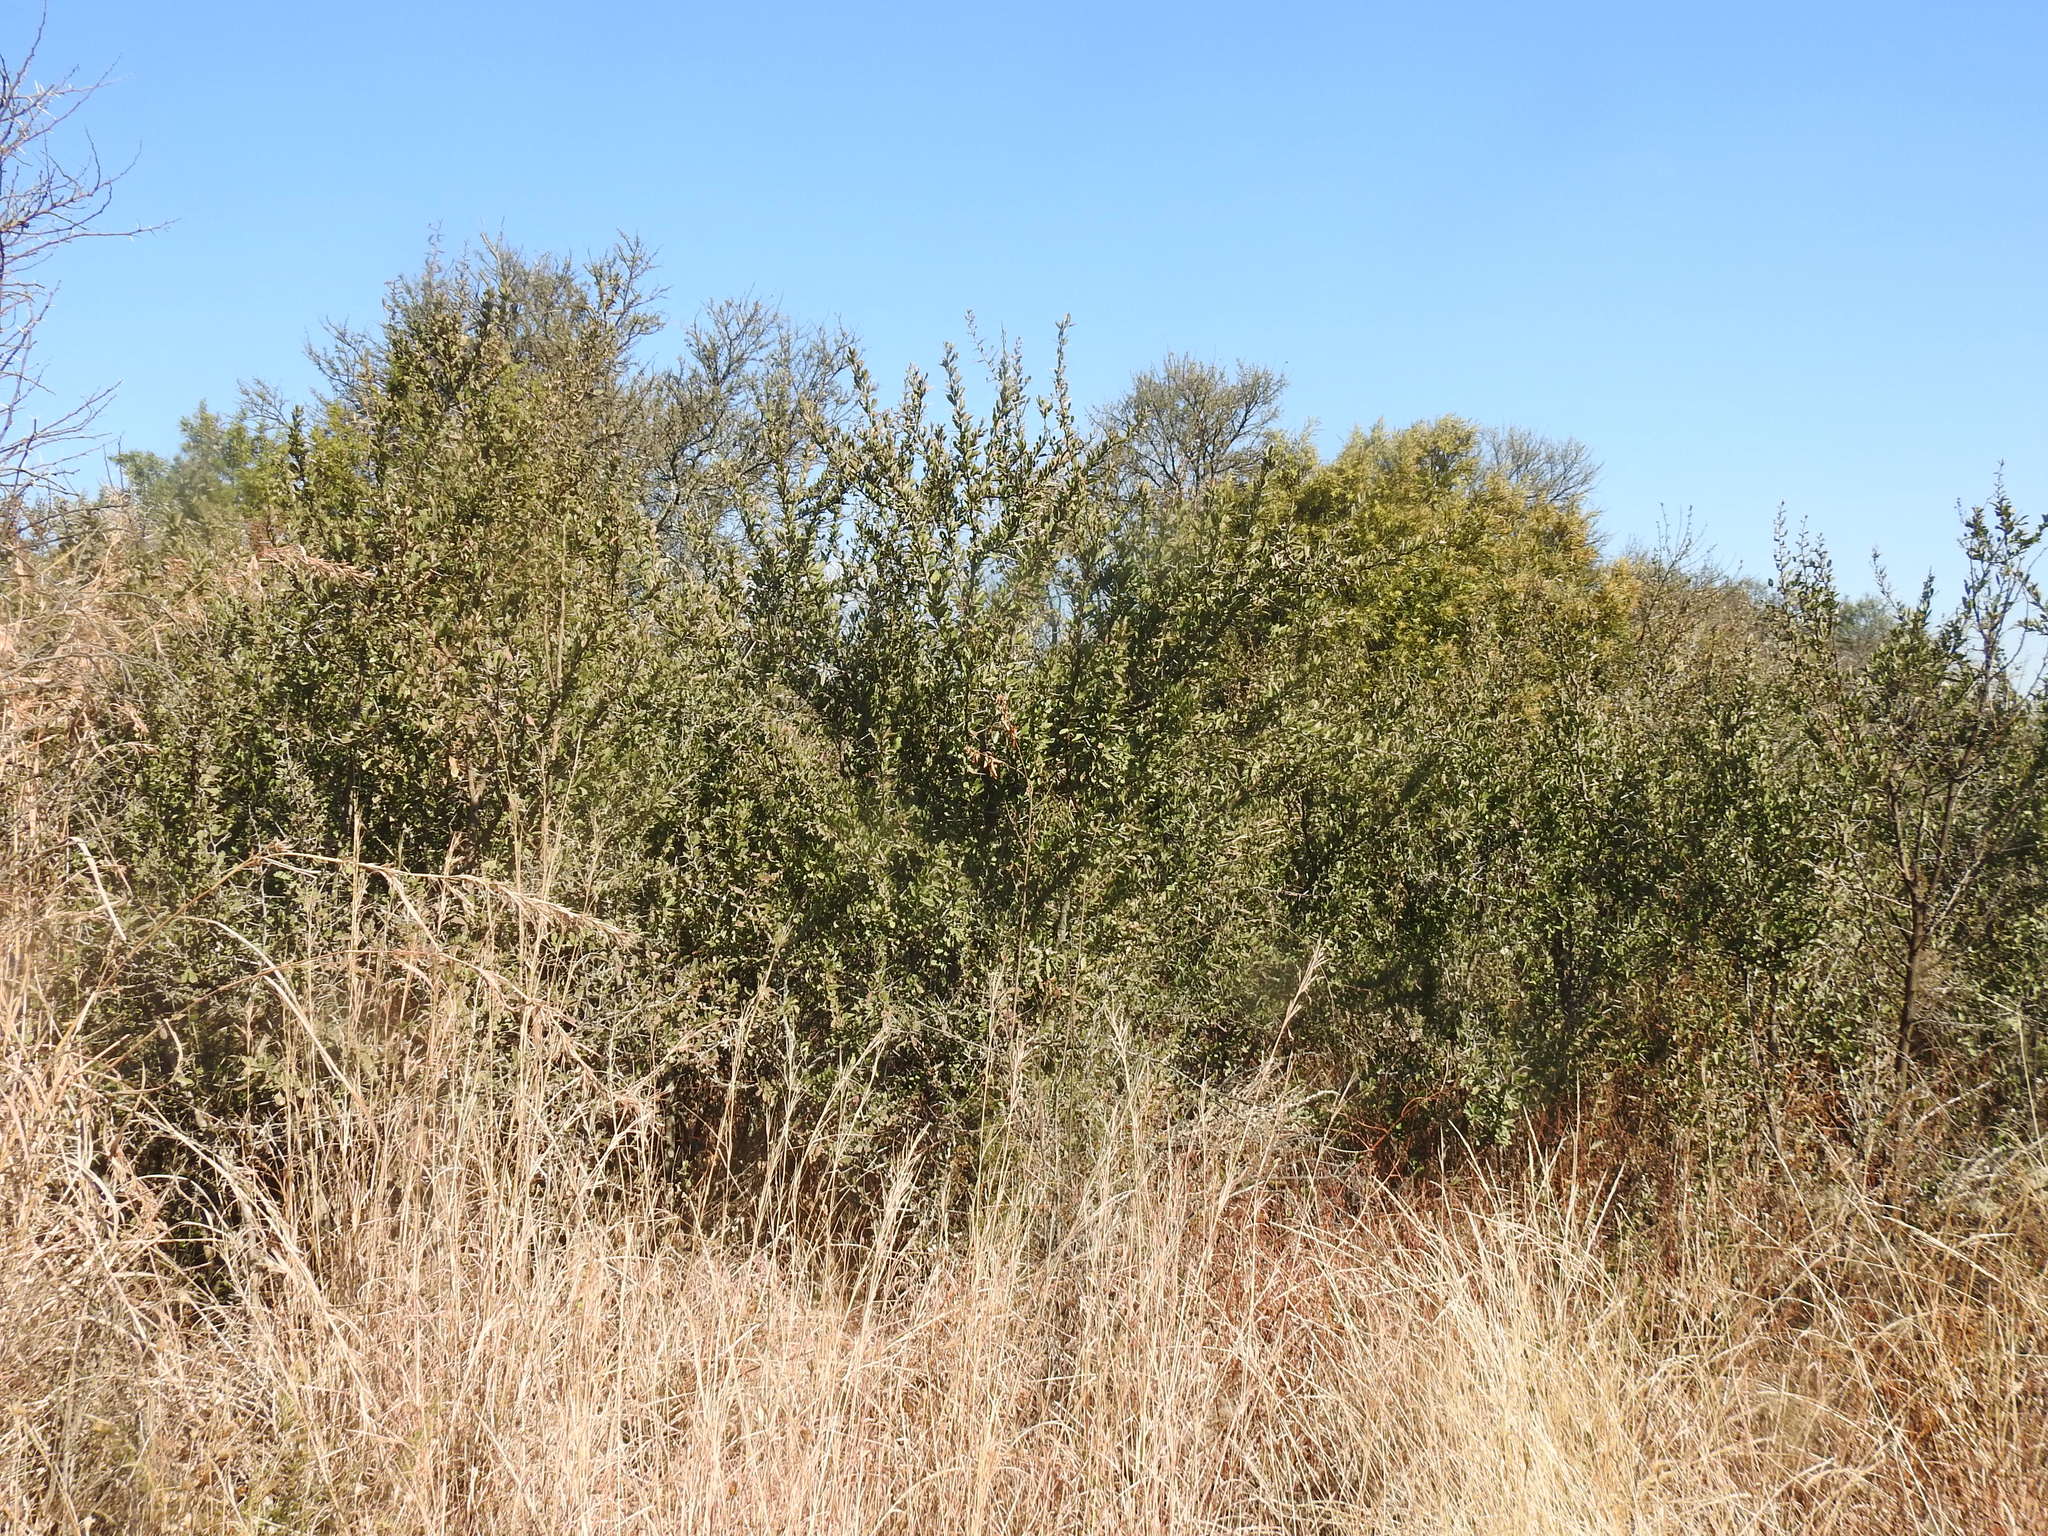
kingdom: Plantae
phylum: Tracheophyta
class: Magnoliopsida
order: Celastrales
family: Celastraceae
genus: Gymnosporia
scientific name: Gymnosporia buxifolia
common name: Common spike-thorn
